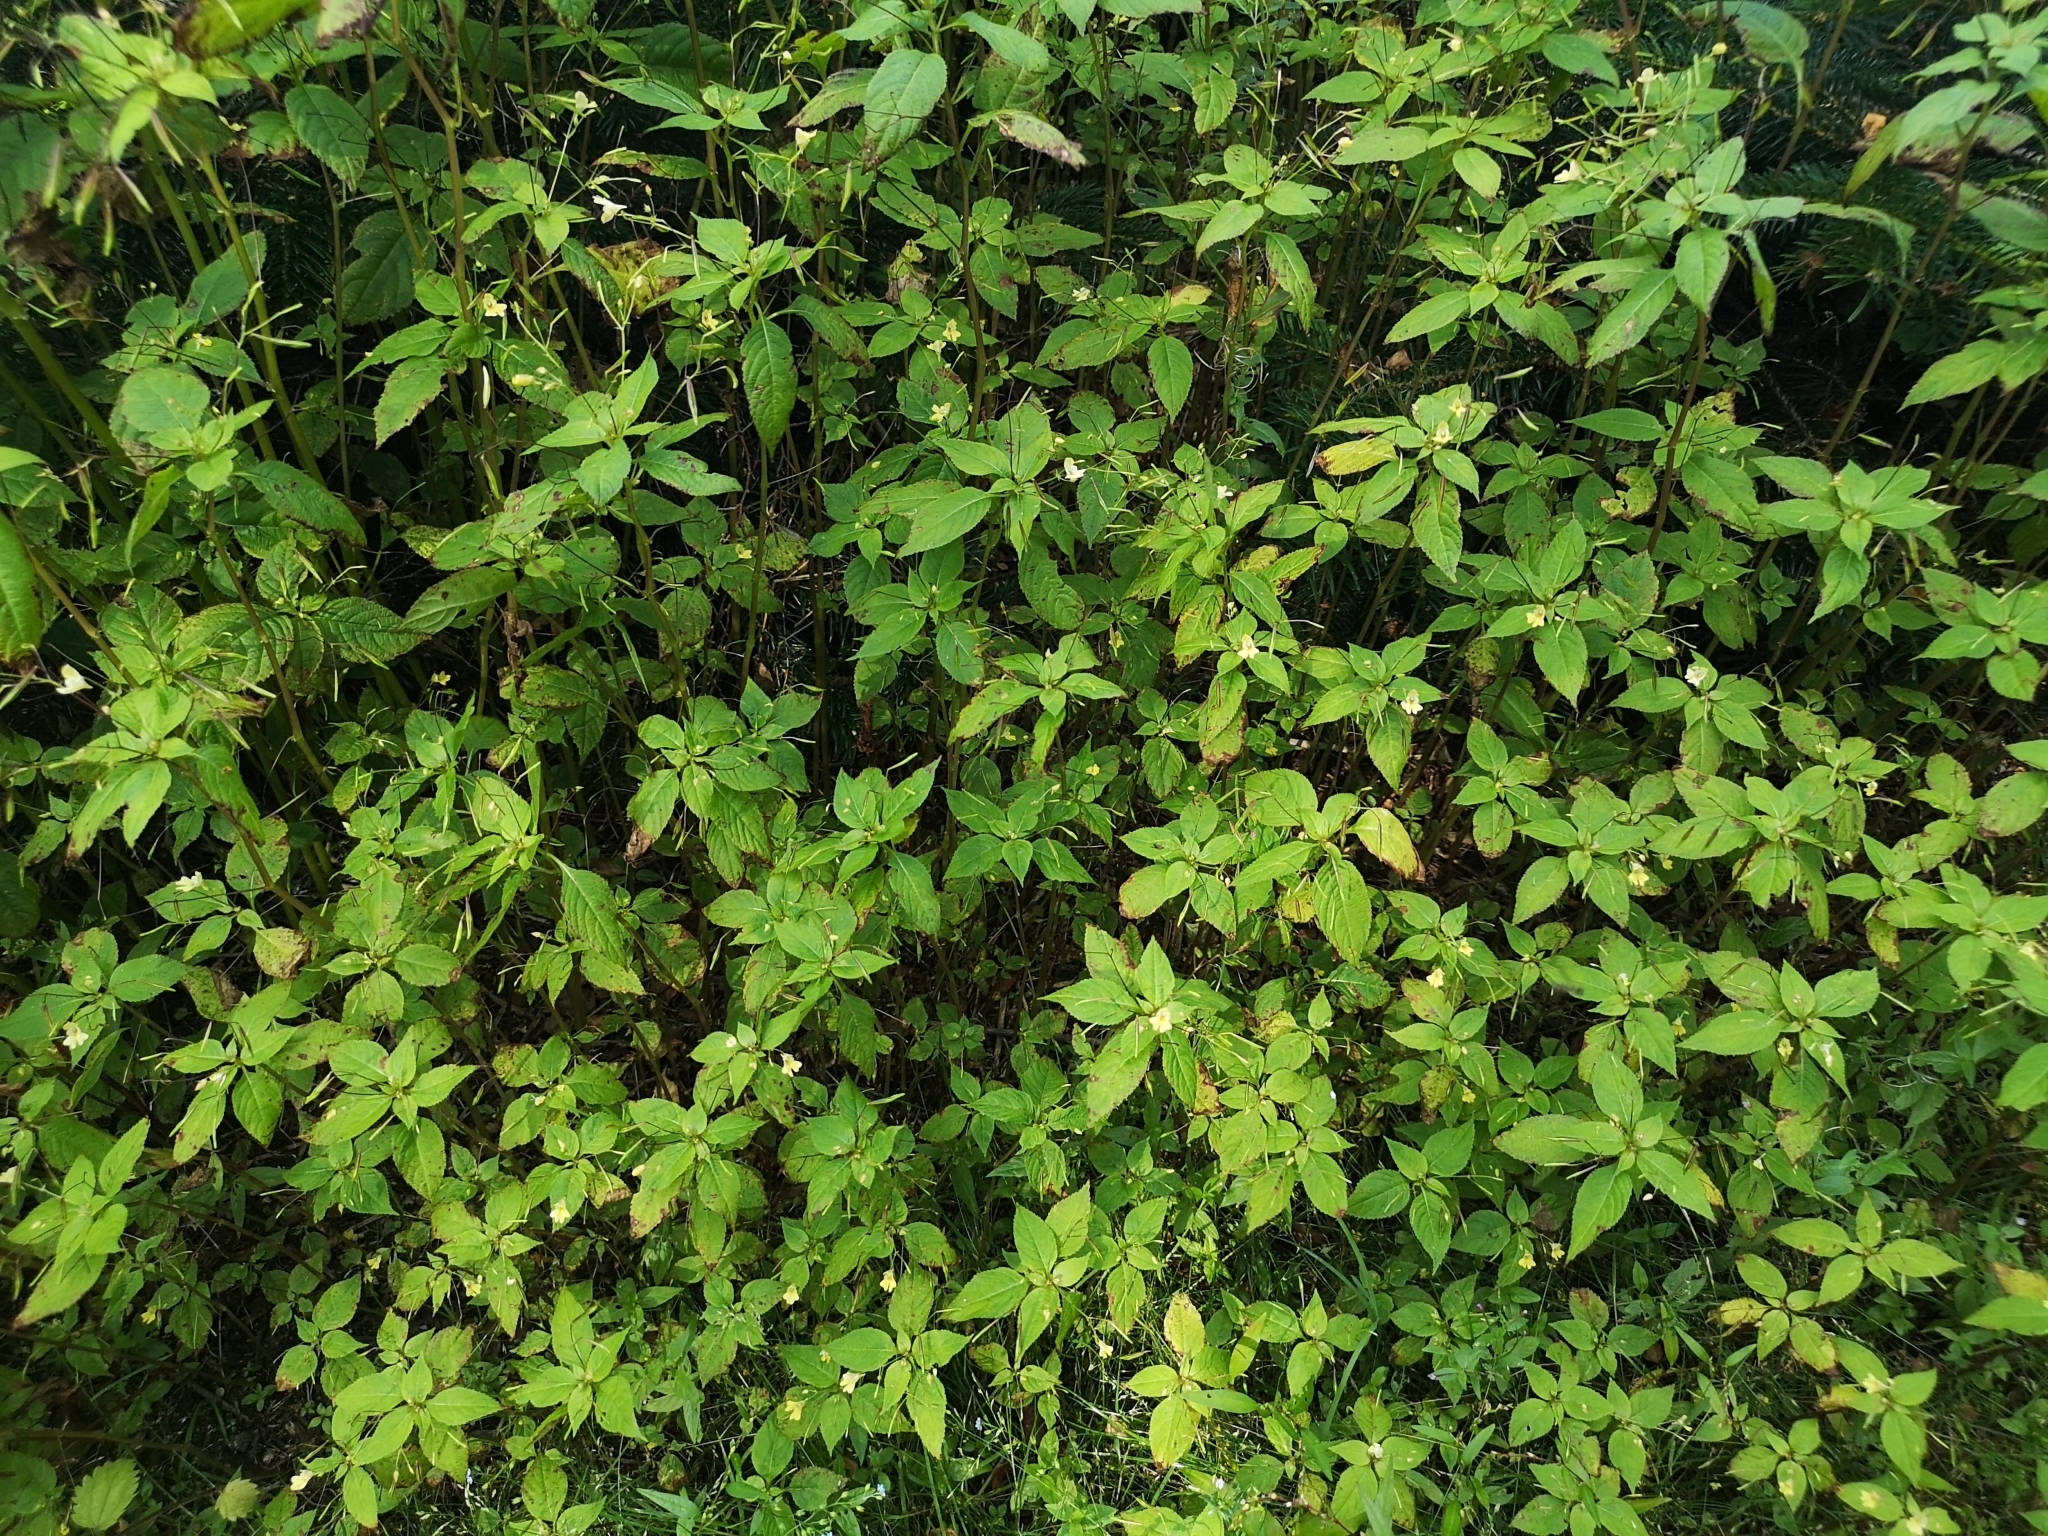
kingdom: Plantae
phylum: Tracheophyta
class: Magnoliopsida
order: Ericales
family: Balsaminaceae
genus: Impatiens
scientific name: Impatiens parviflora
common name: Small balsam
